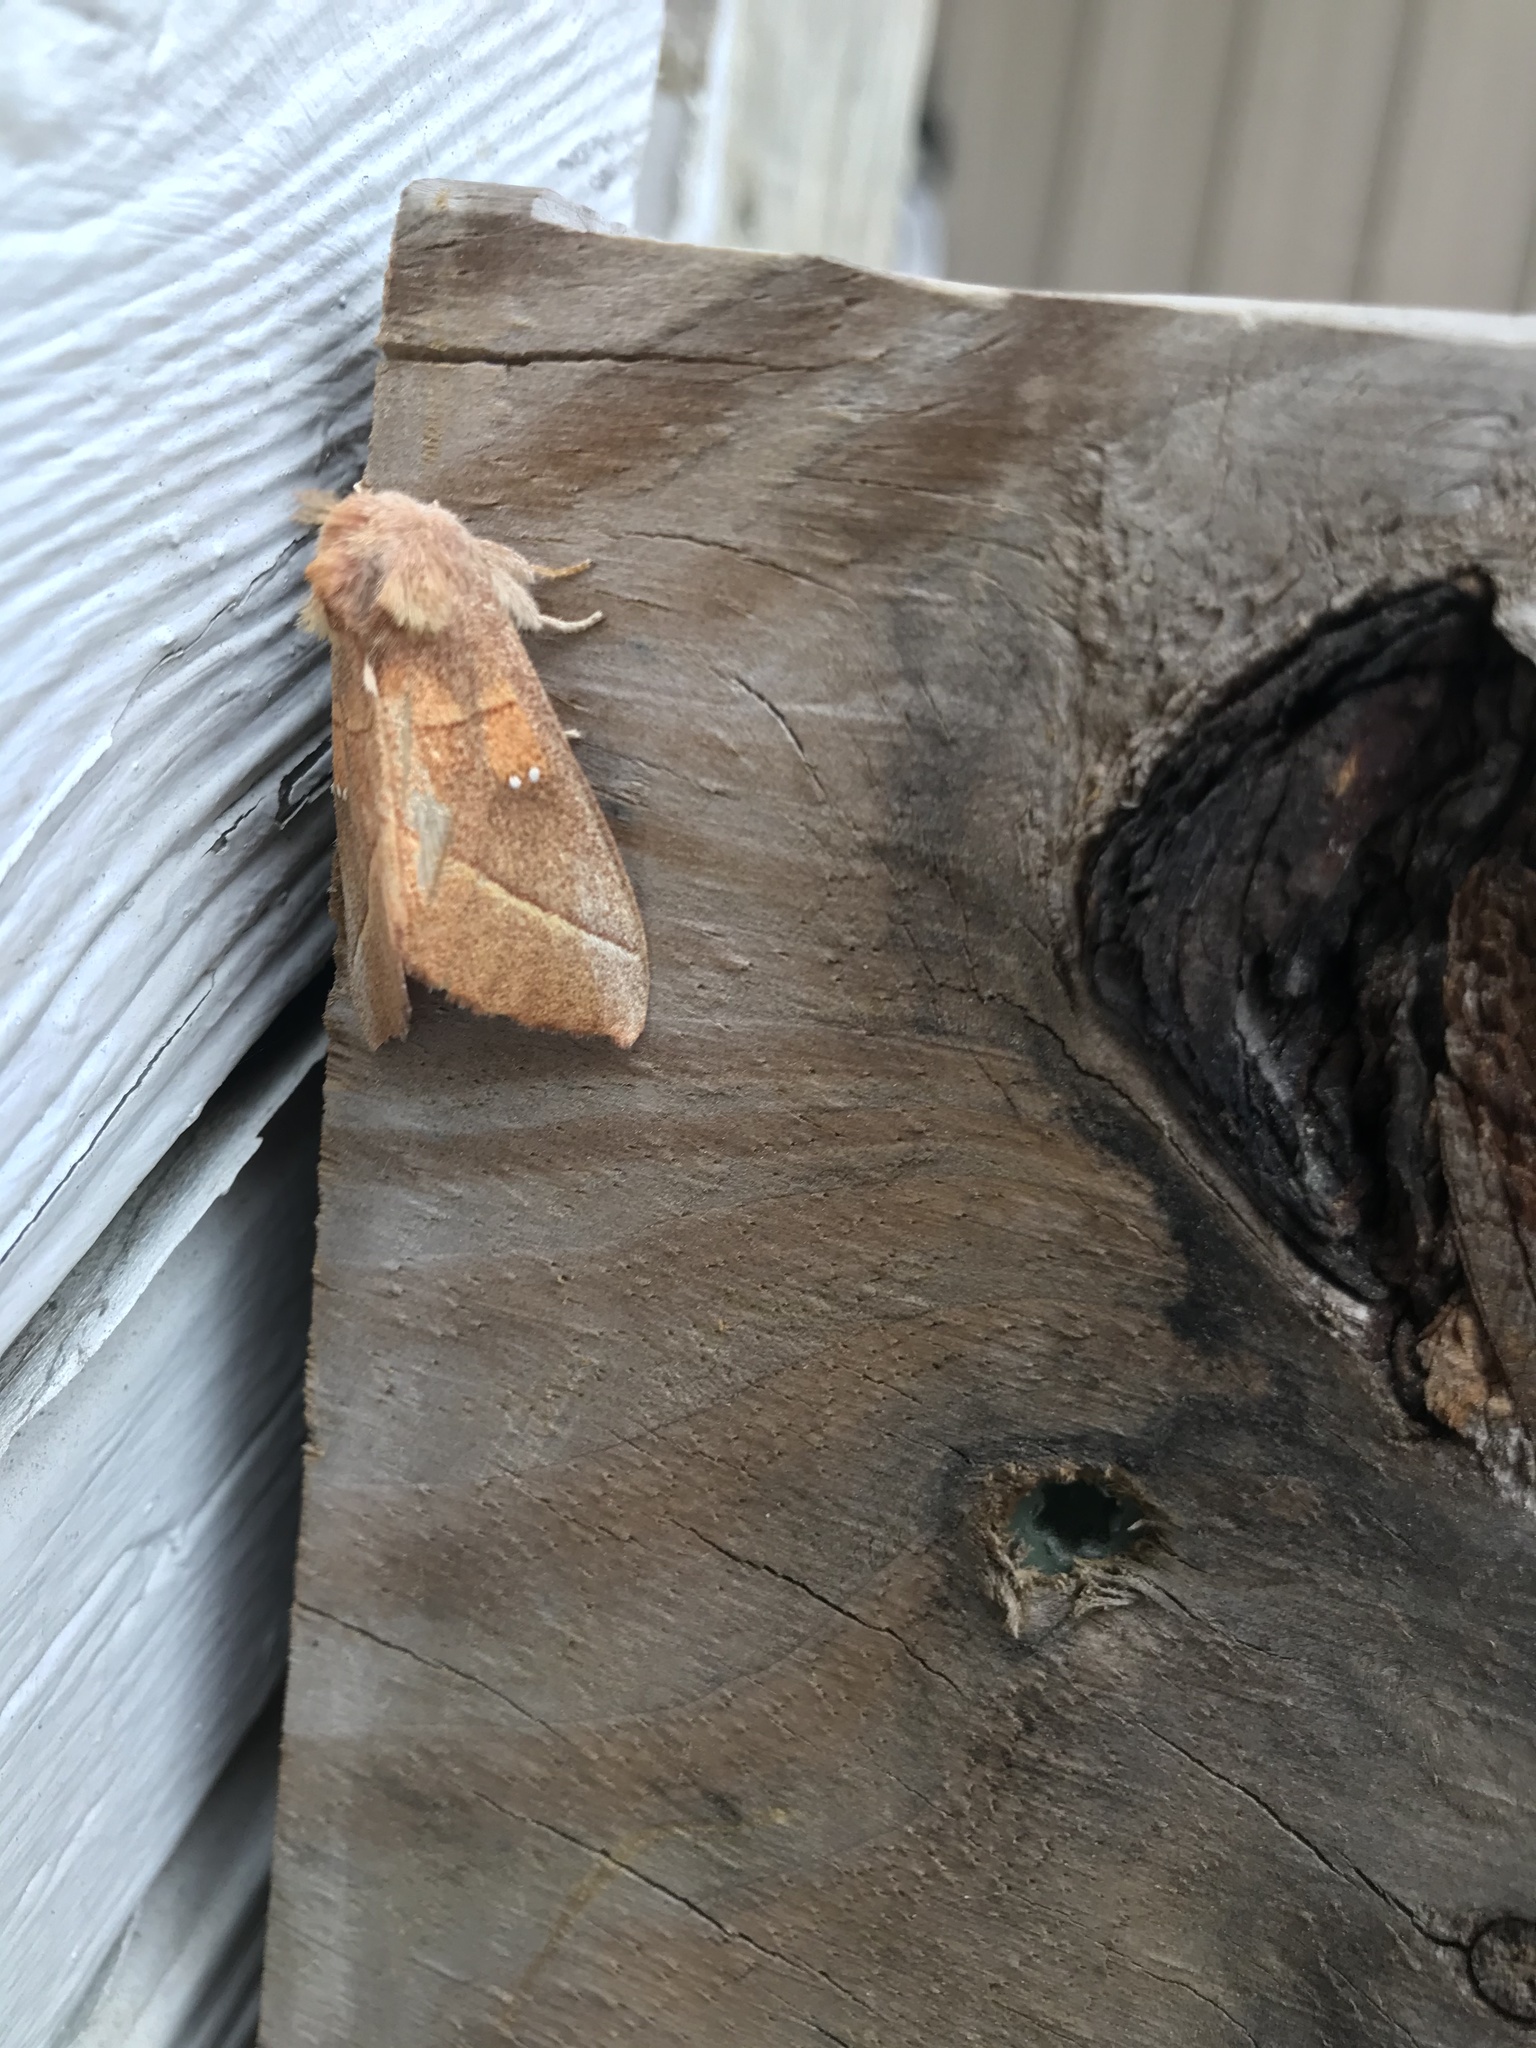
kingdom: Animalia
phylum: Arthropoda
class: Insecta
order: Lepidoptera
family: Notodontidae
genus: Nadata
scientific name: Nadata gibbosa
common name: White-dotted prominent
